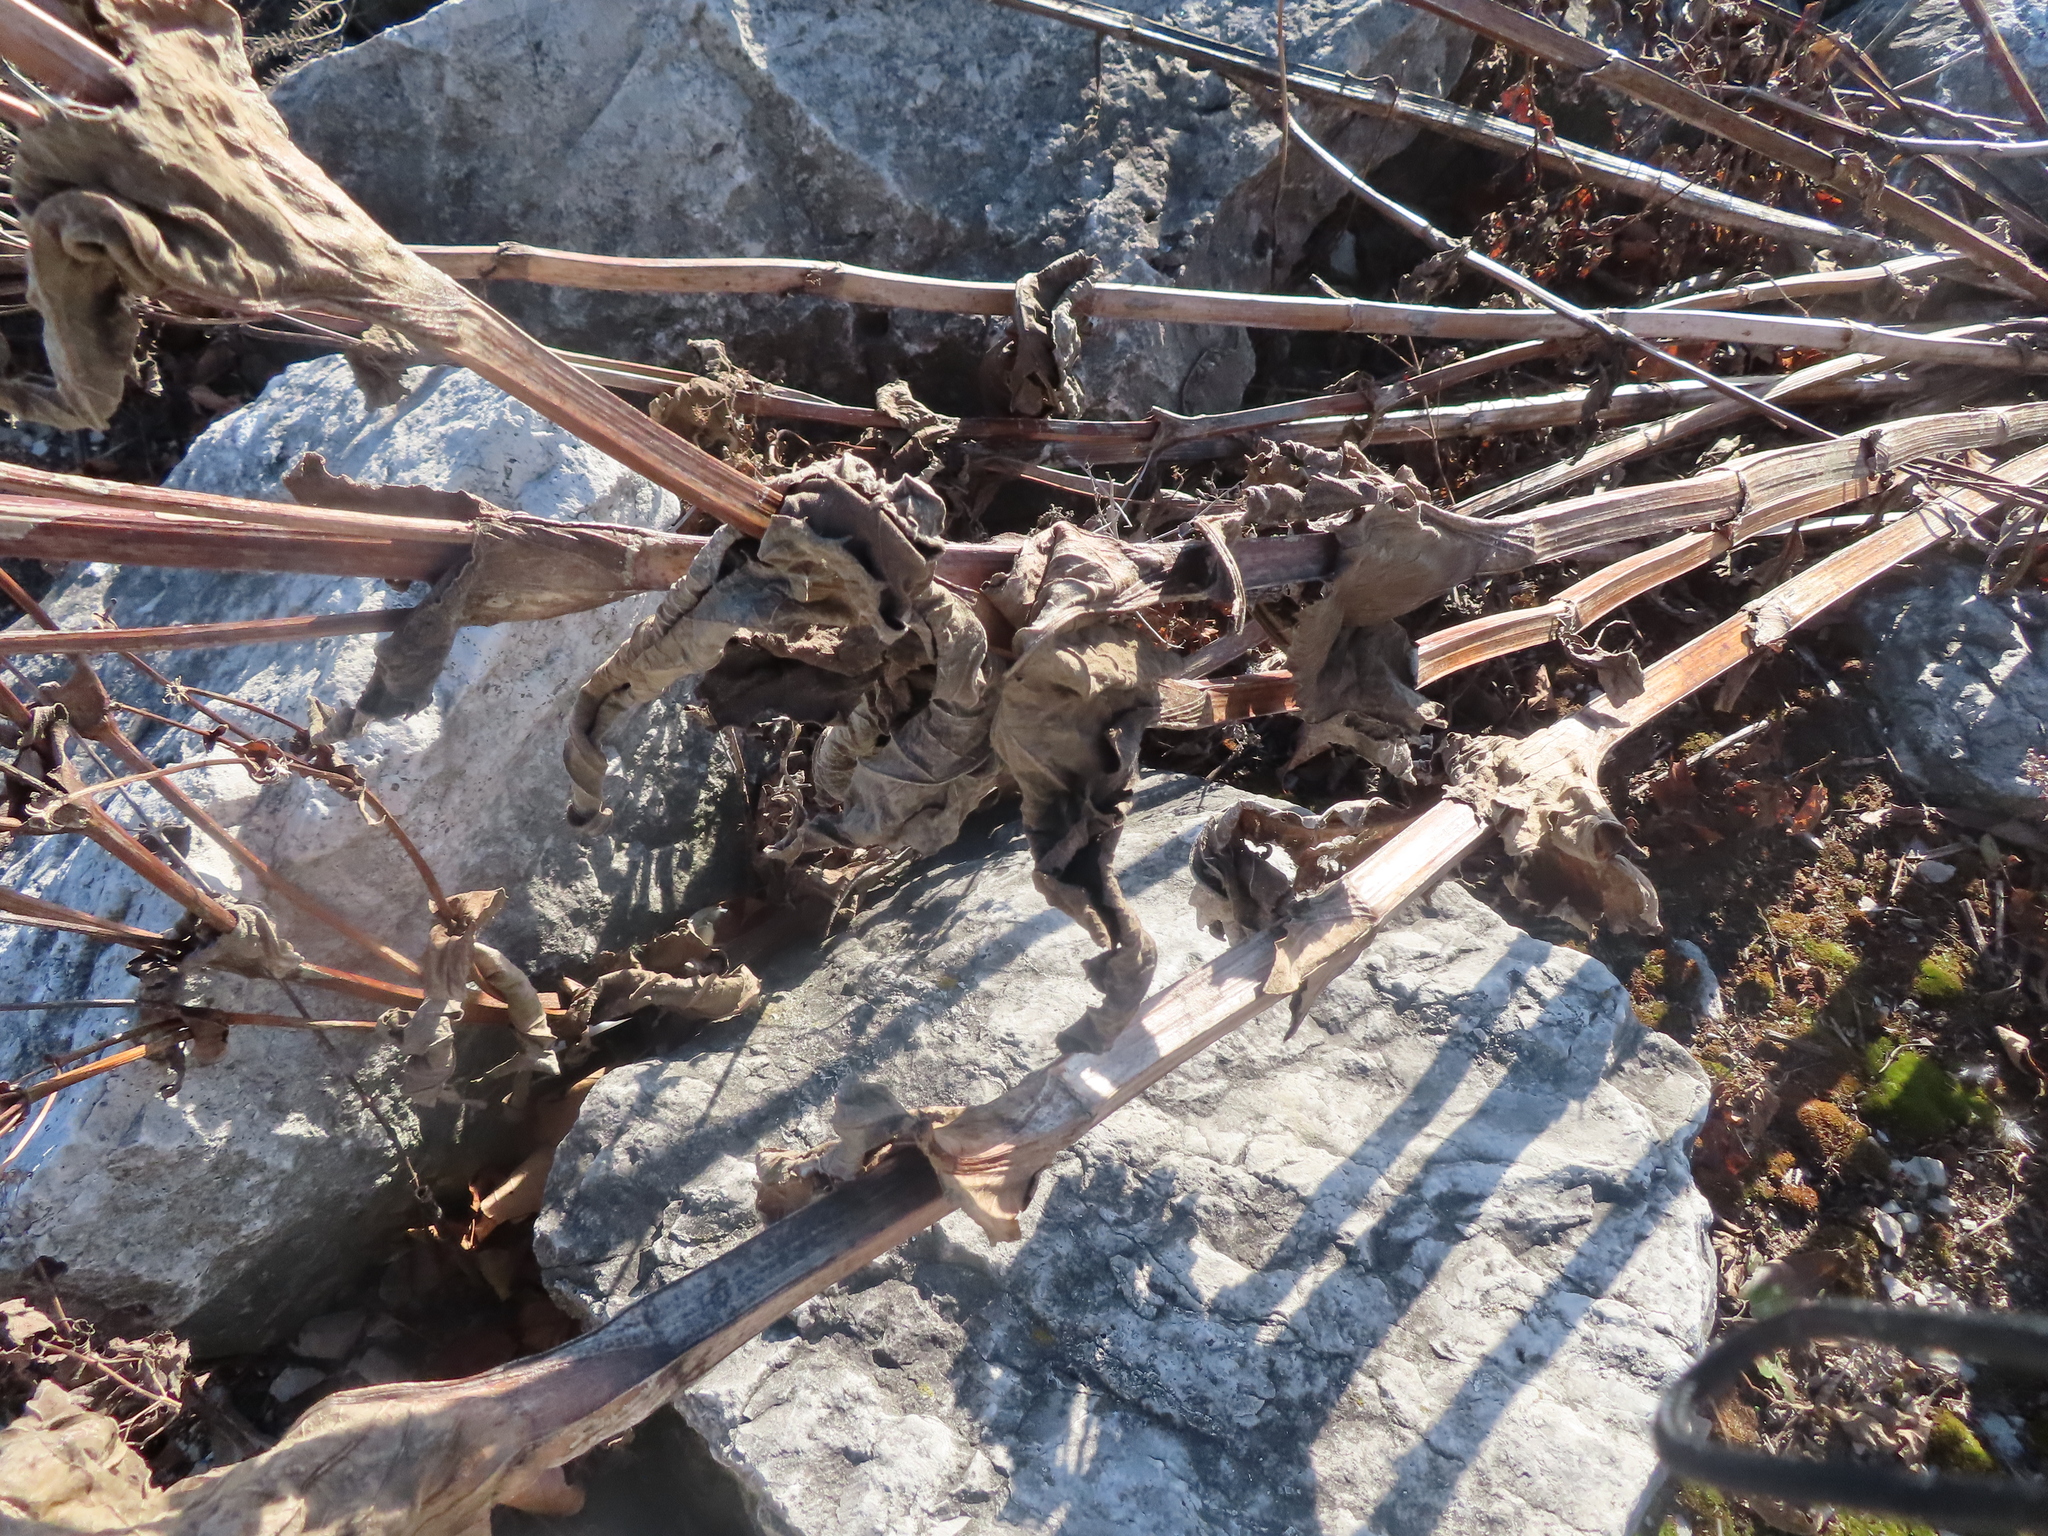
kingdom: Plantae
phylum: Tracheophyta
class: Magnoliopsida
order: Asterales
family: Asteraceae
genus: Silphium
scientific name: Silphium perfoliatum
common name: Cup-plant
